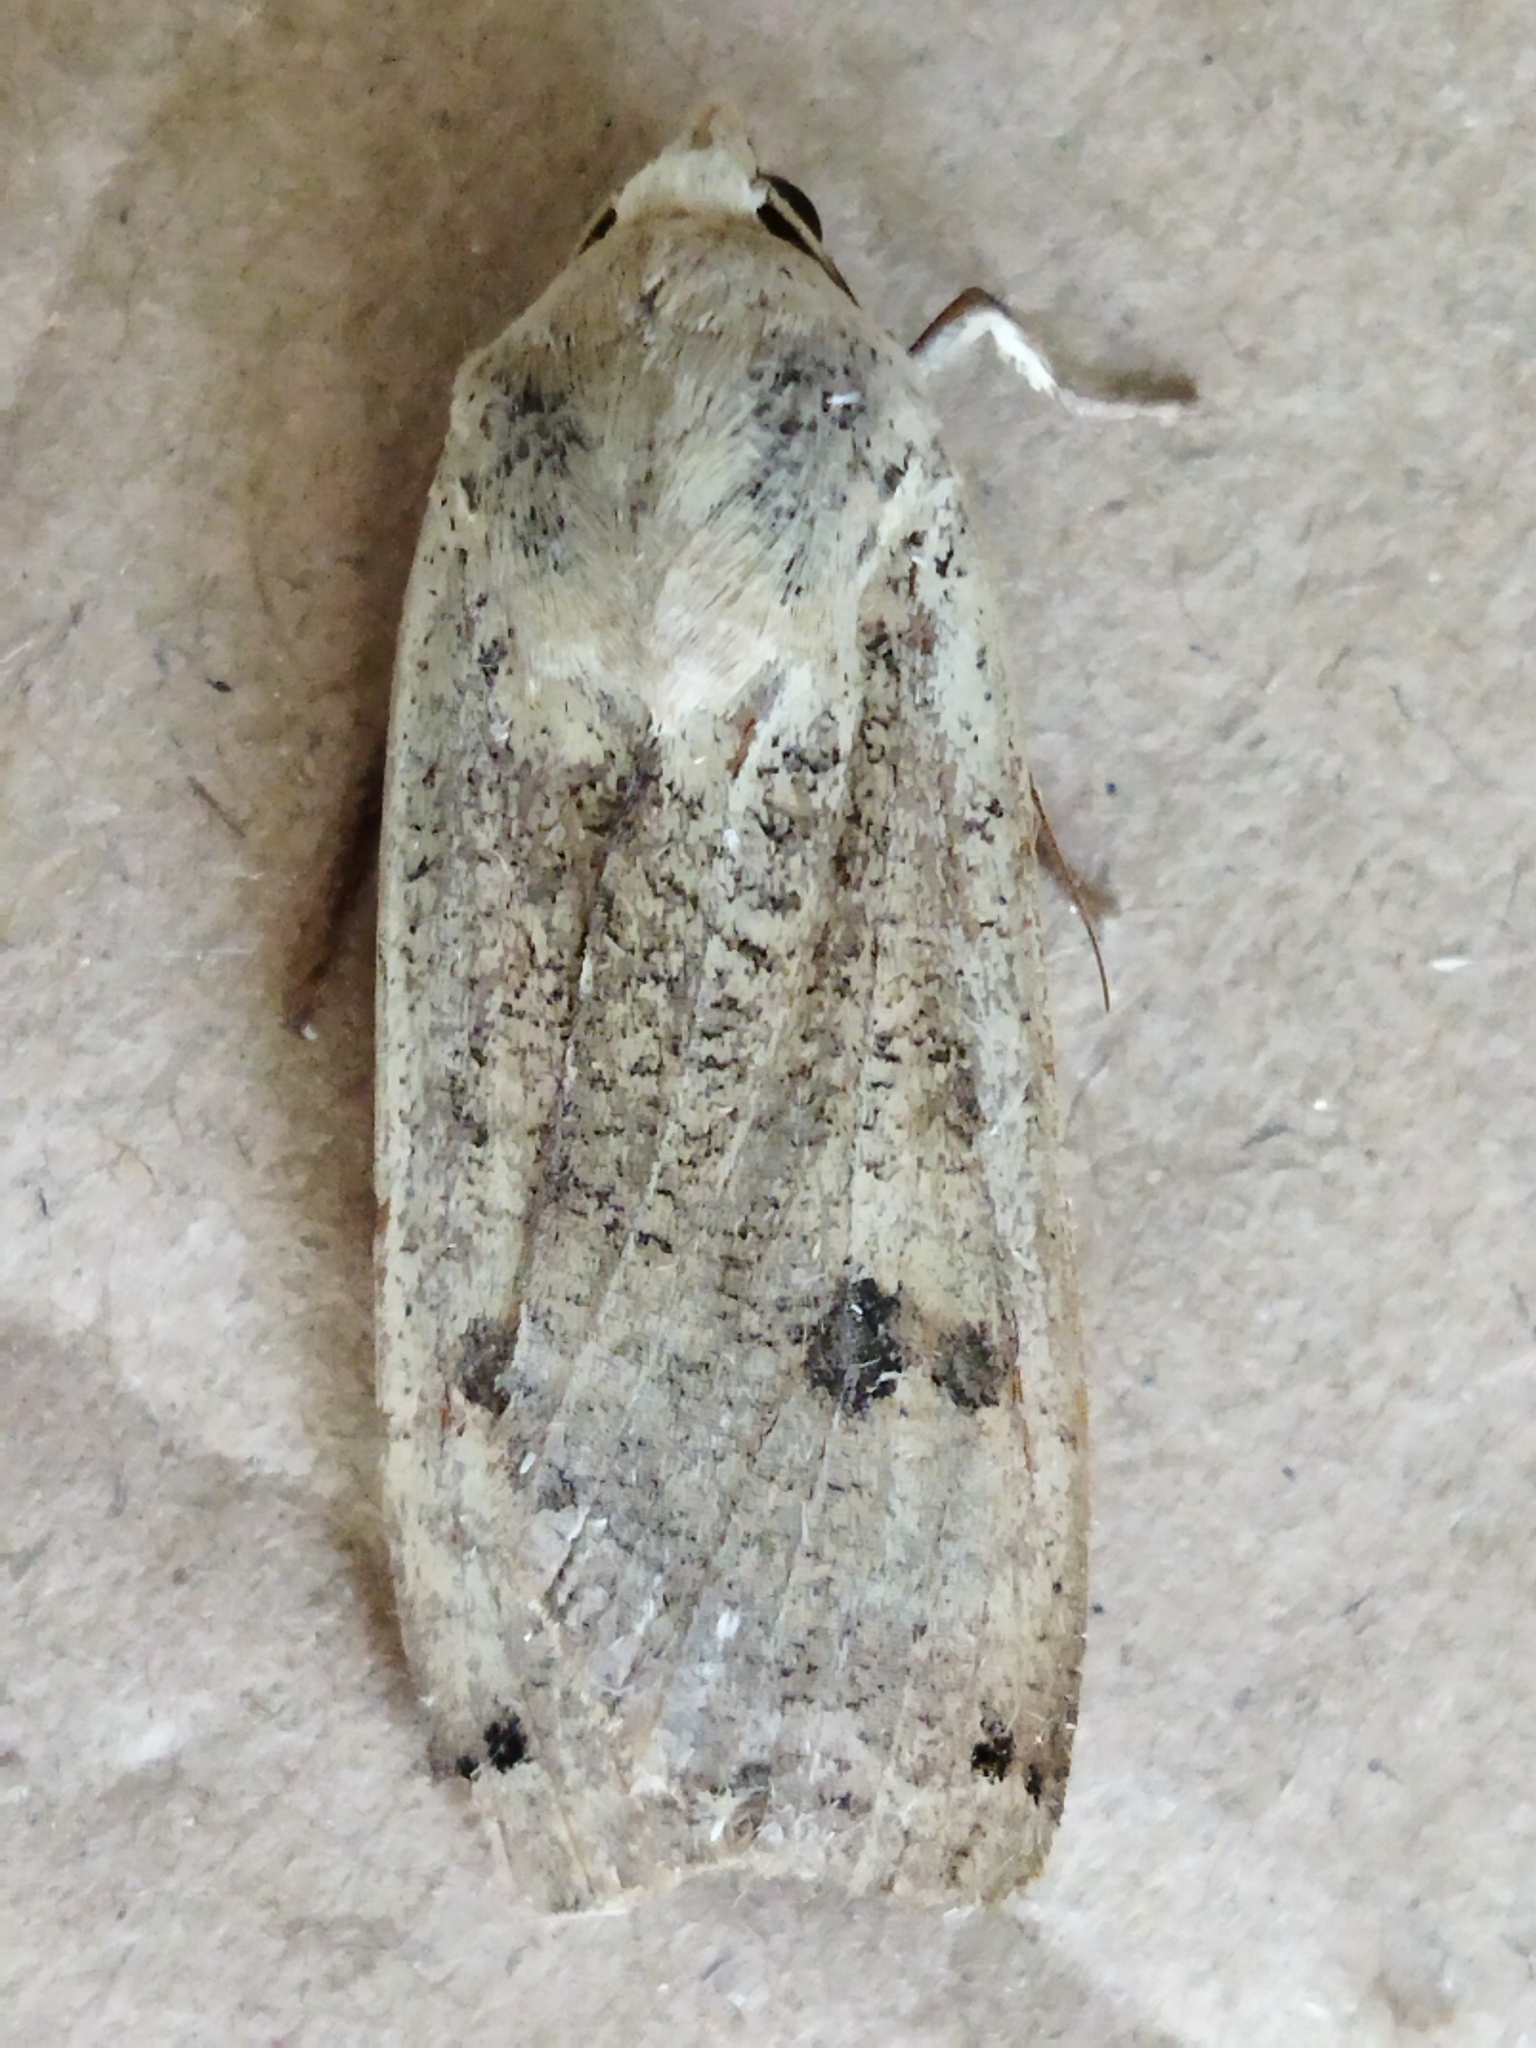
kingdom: Animalia
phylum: Arthropoda
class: Insecta
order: Lepidoptera
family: Noctuidae
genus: Noctua
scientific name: Noctua pronuba
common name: Large yellow underwing
